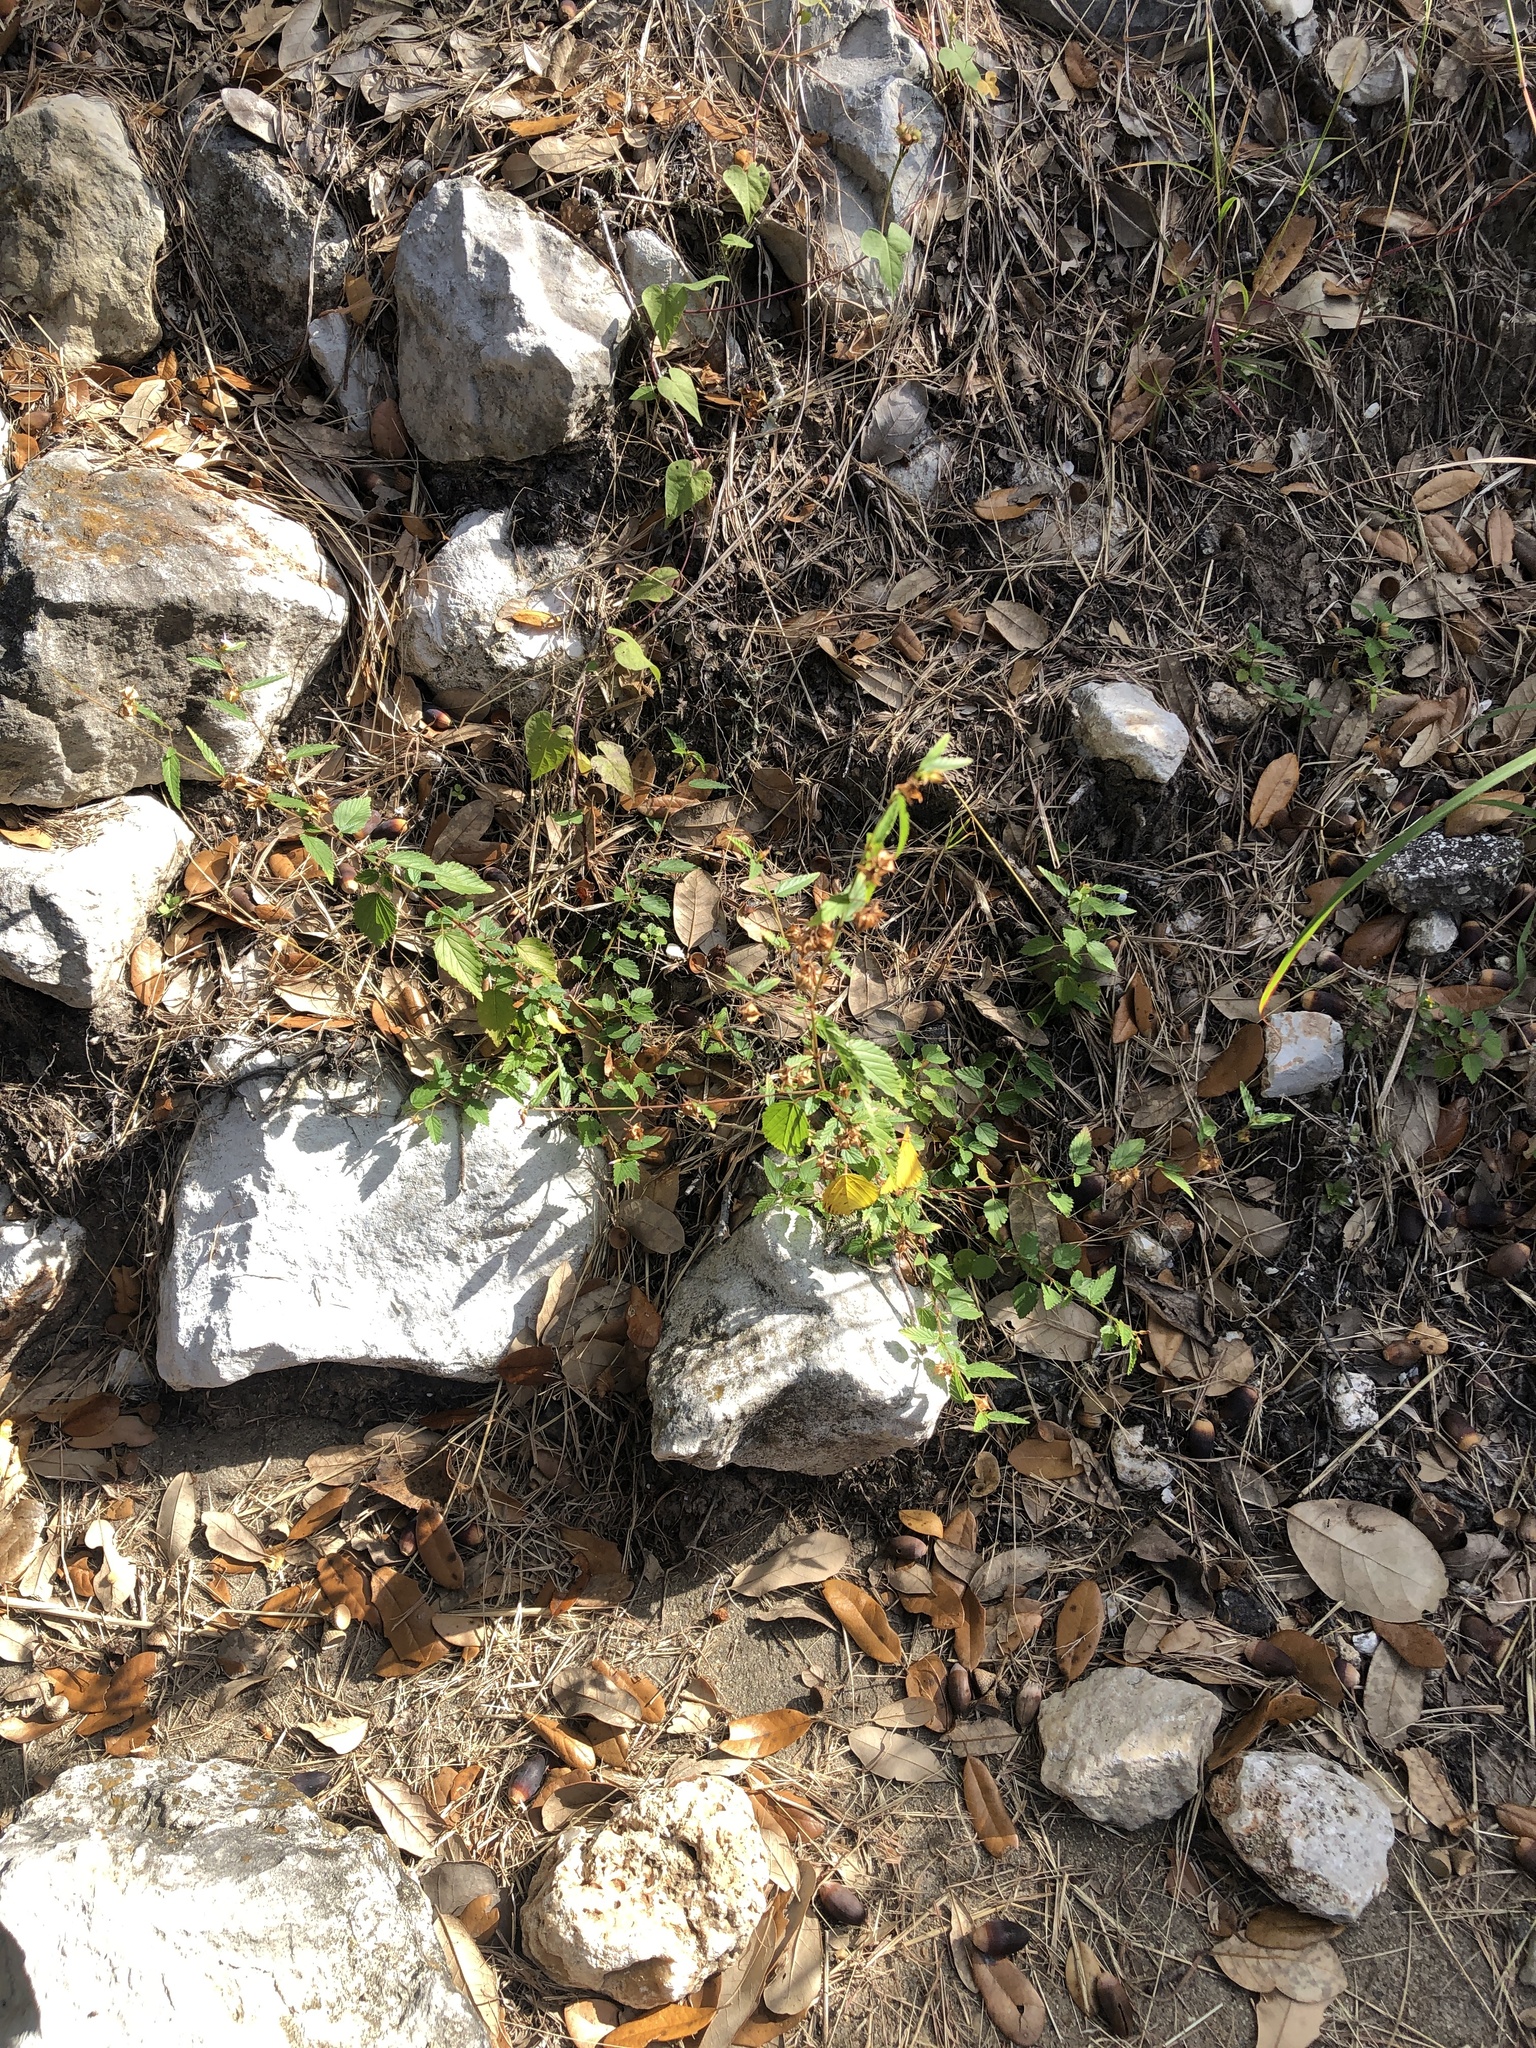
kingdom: Plantae
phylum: Tracheophyta
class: Magnoliopsida
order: Malvales
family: Malvaceae
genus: Melochia
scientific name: Melochia pyramidata
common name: Pyramidflower
